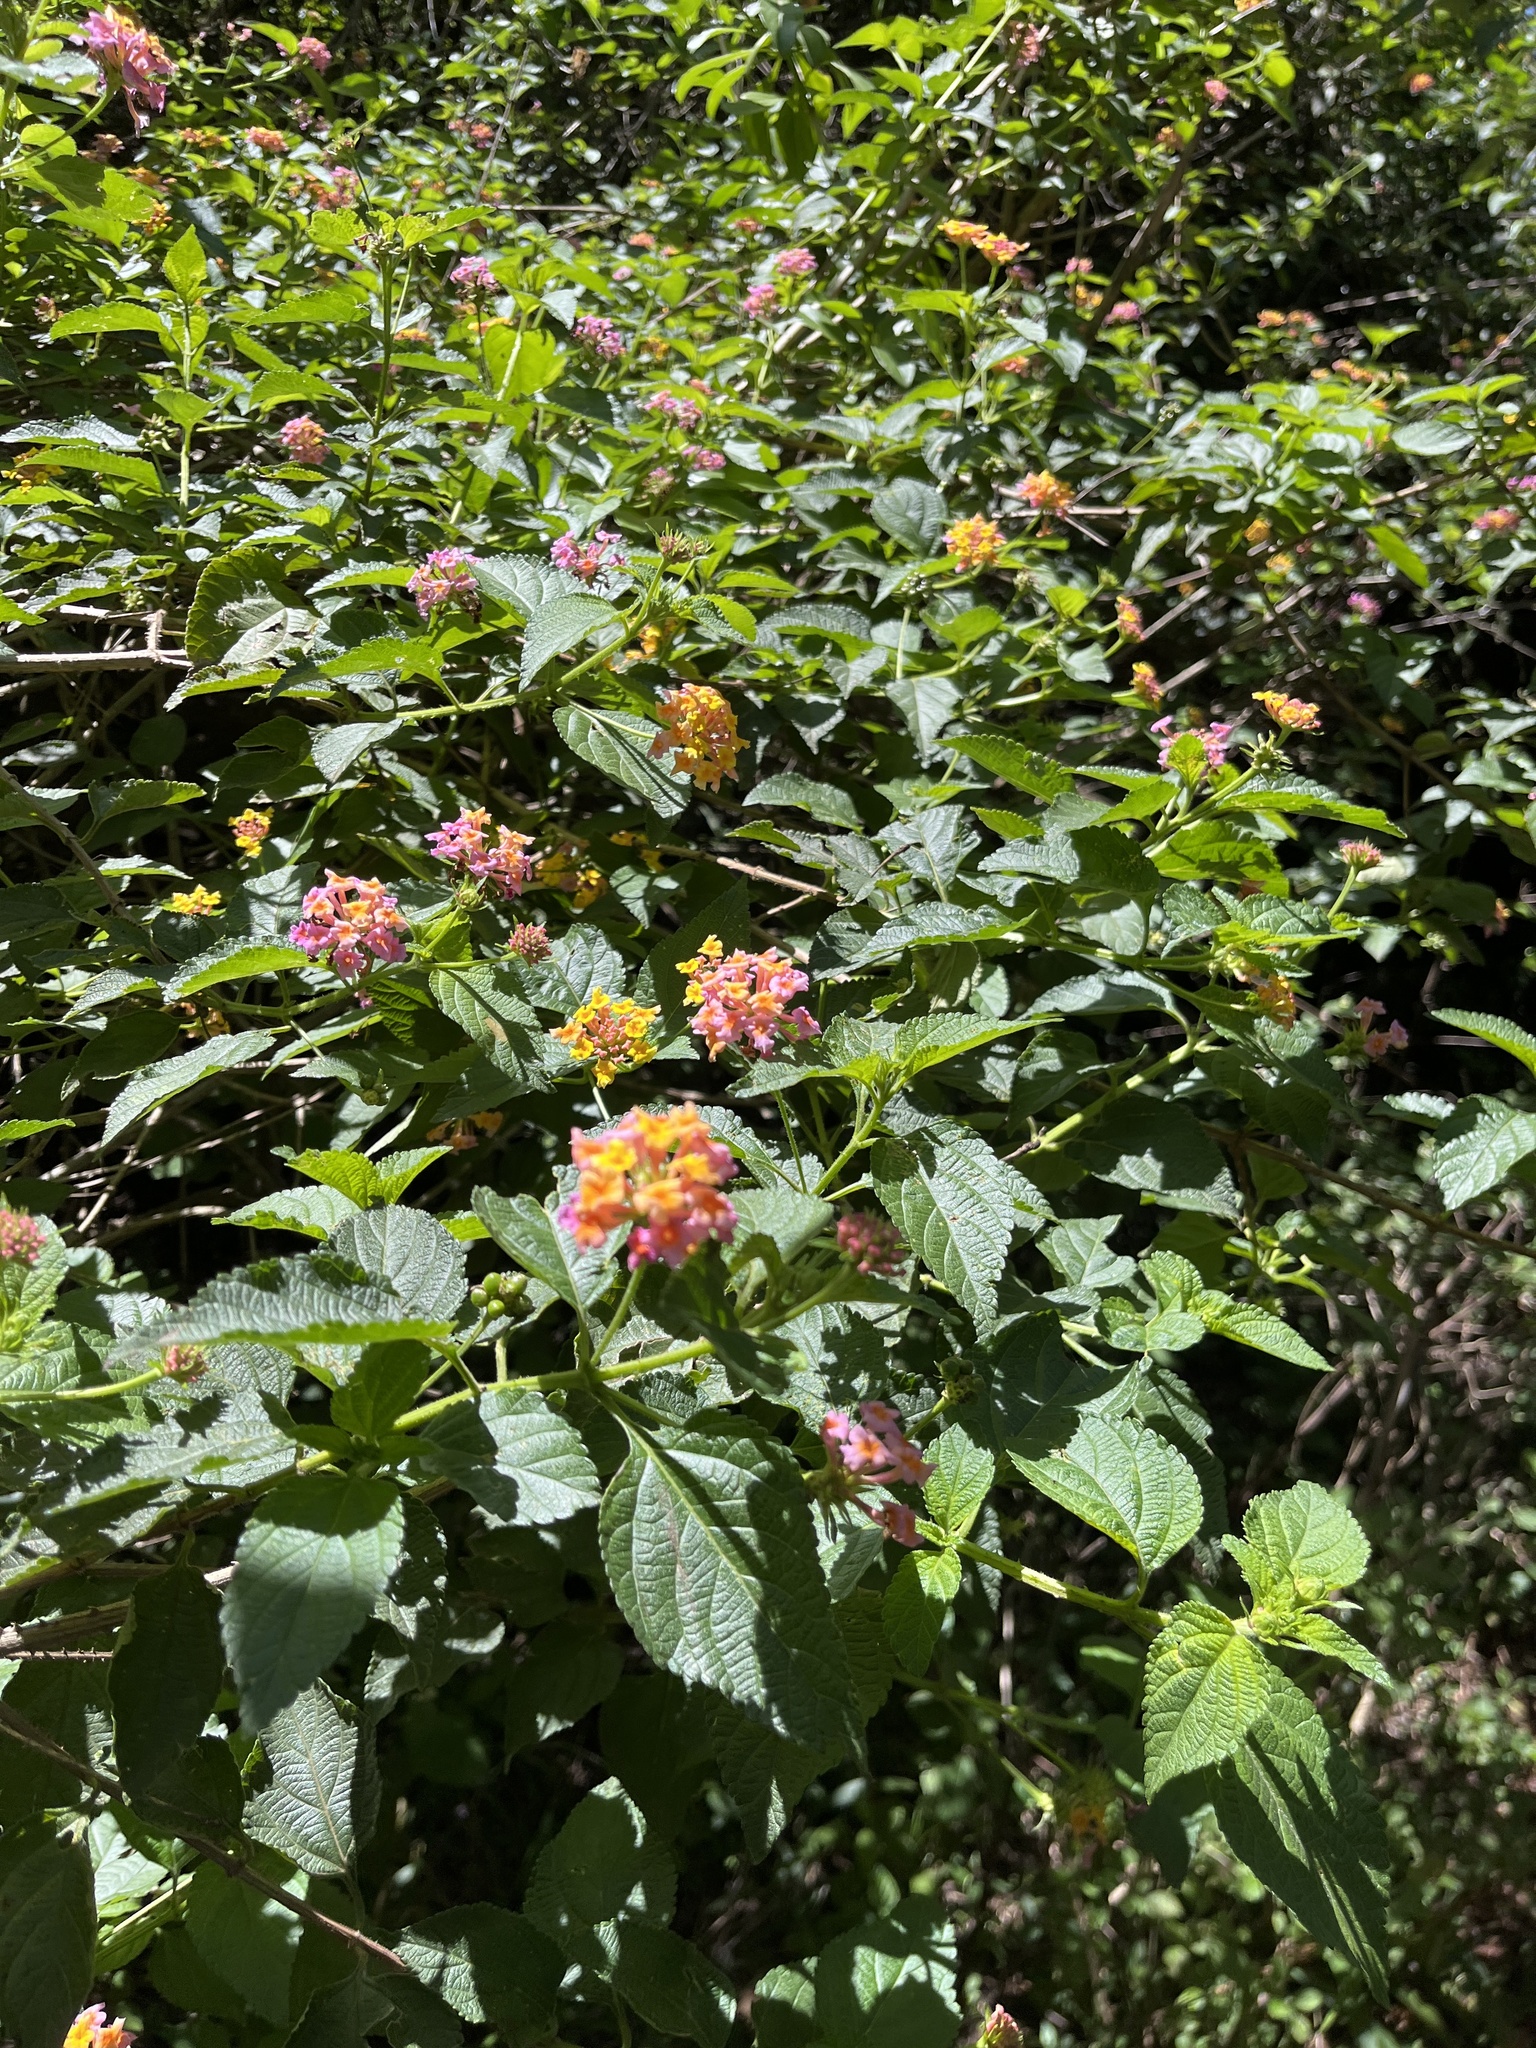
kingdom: Plantae
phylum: Tracheophyta
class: Magnoliopsida
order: Lamiales
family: Verbenaceae
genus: Lantana
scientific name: Lantana camara
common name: Lantana
